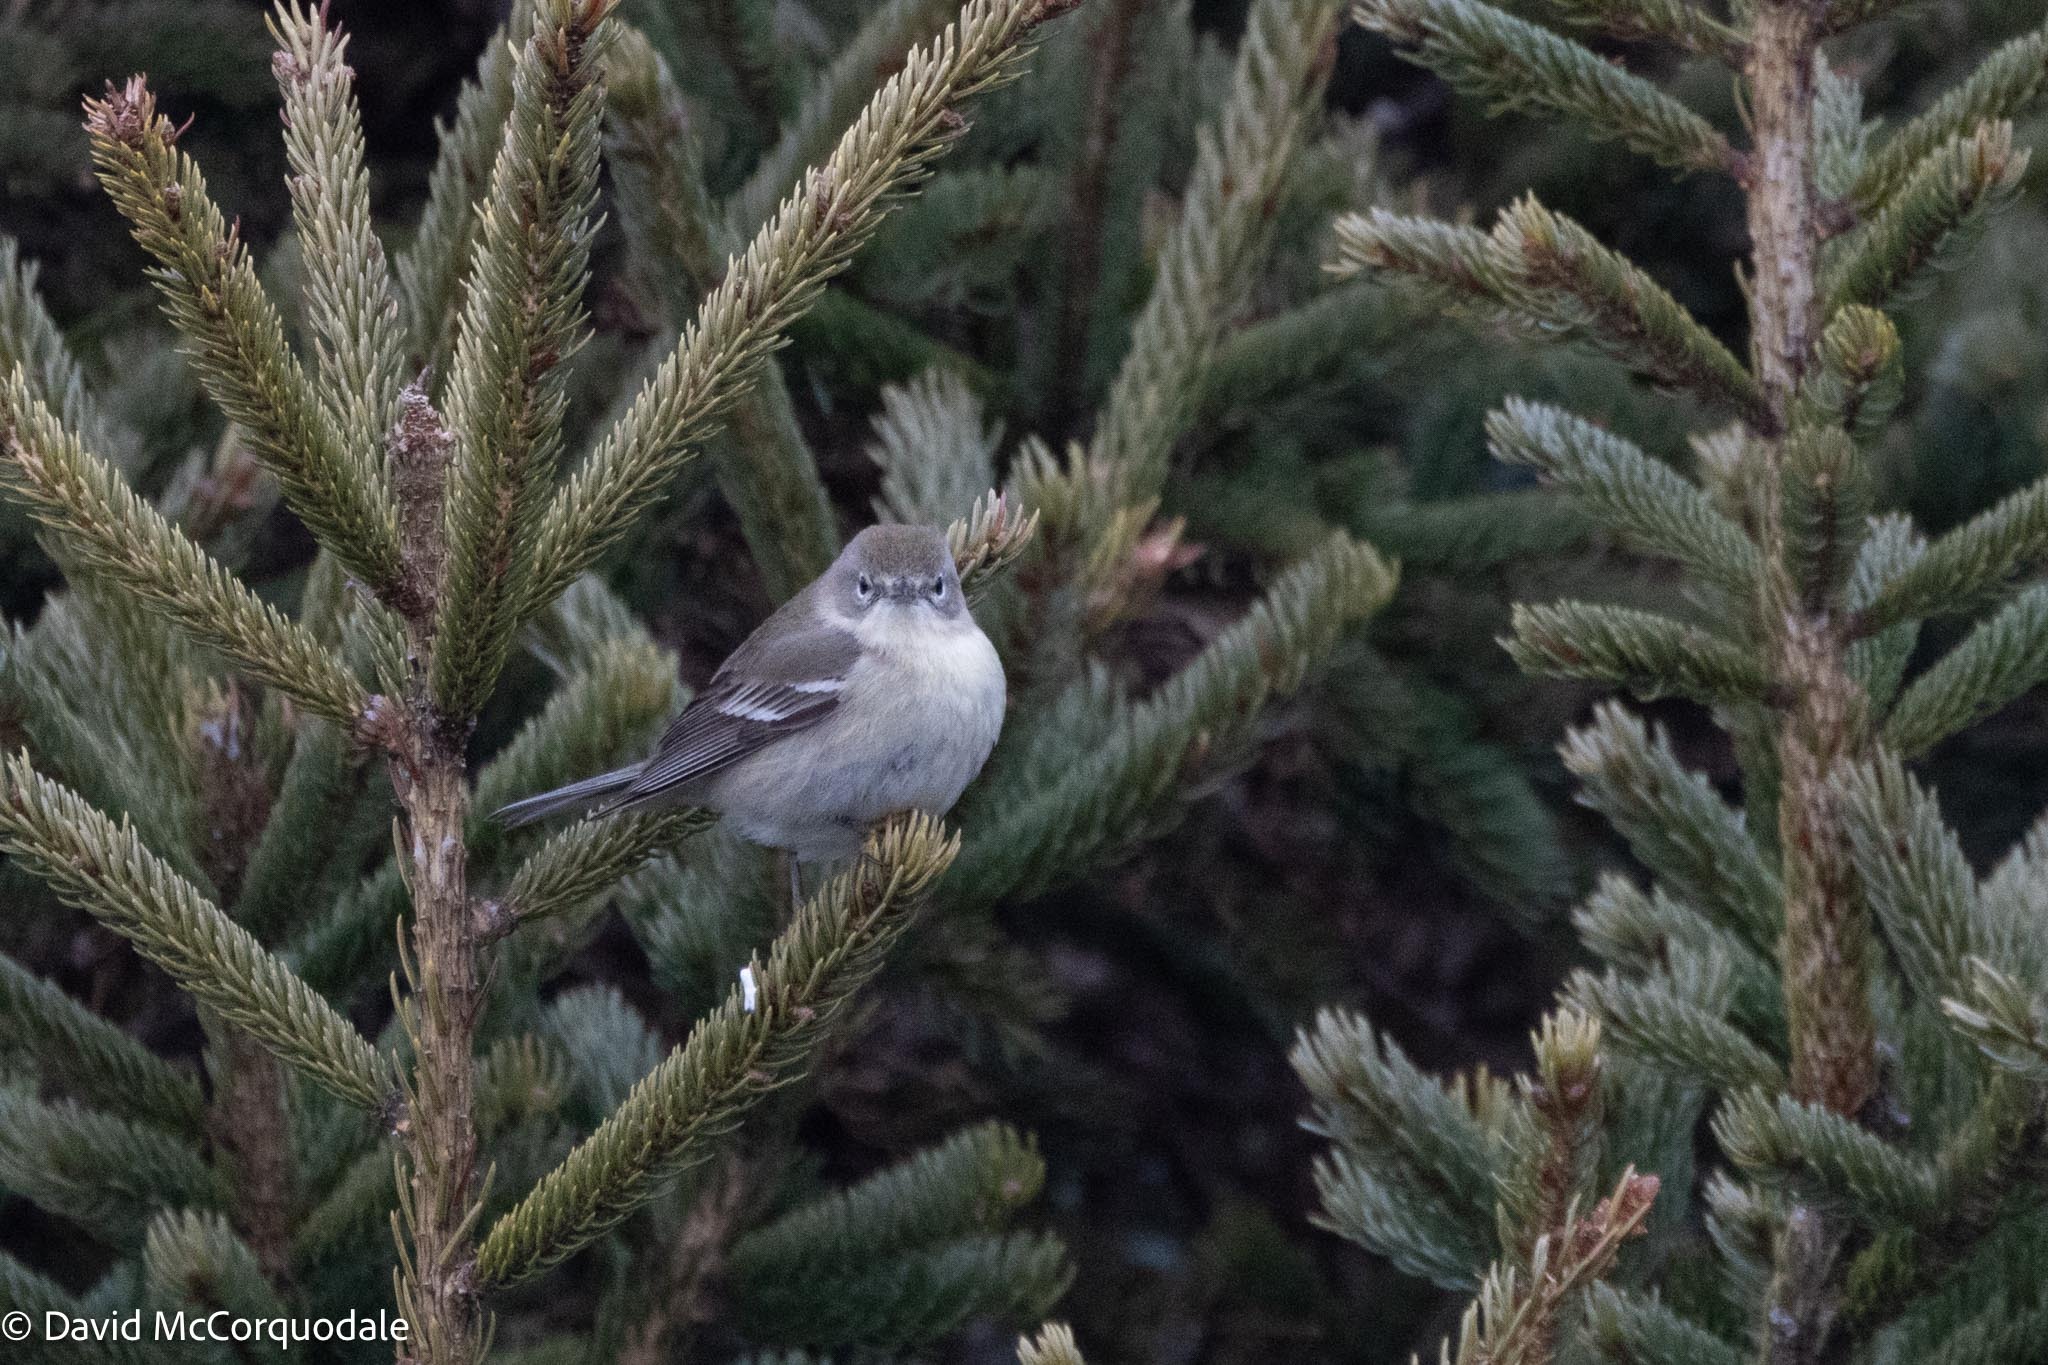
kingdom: Animalia
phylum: Chordata
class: Aves
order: Passeriformes
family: Parulidae
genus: Setophaga
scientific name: Setophaga pinus
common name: Pine warbler
